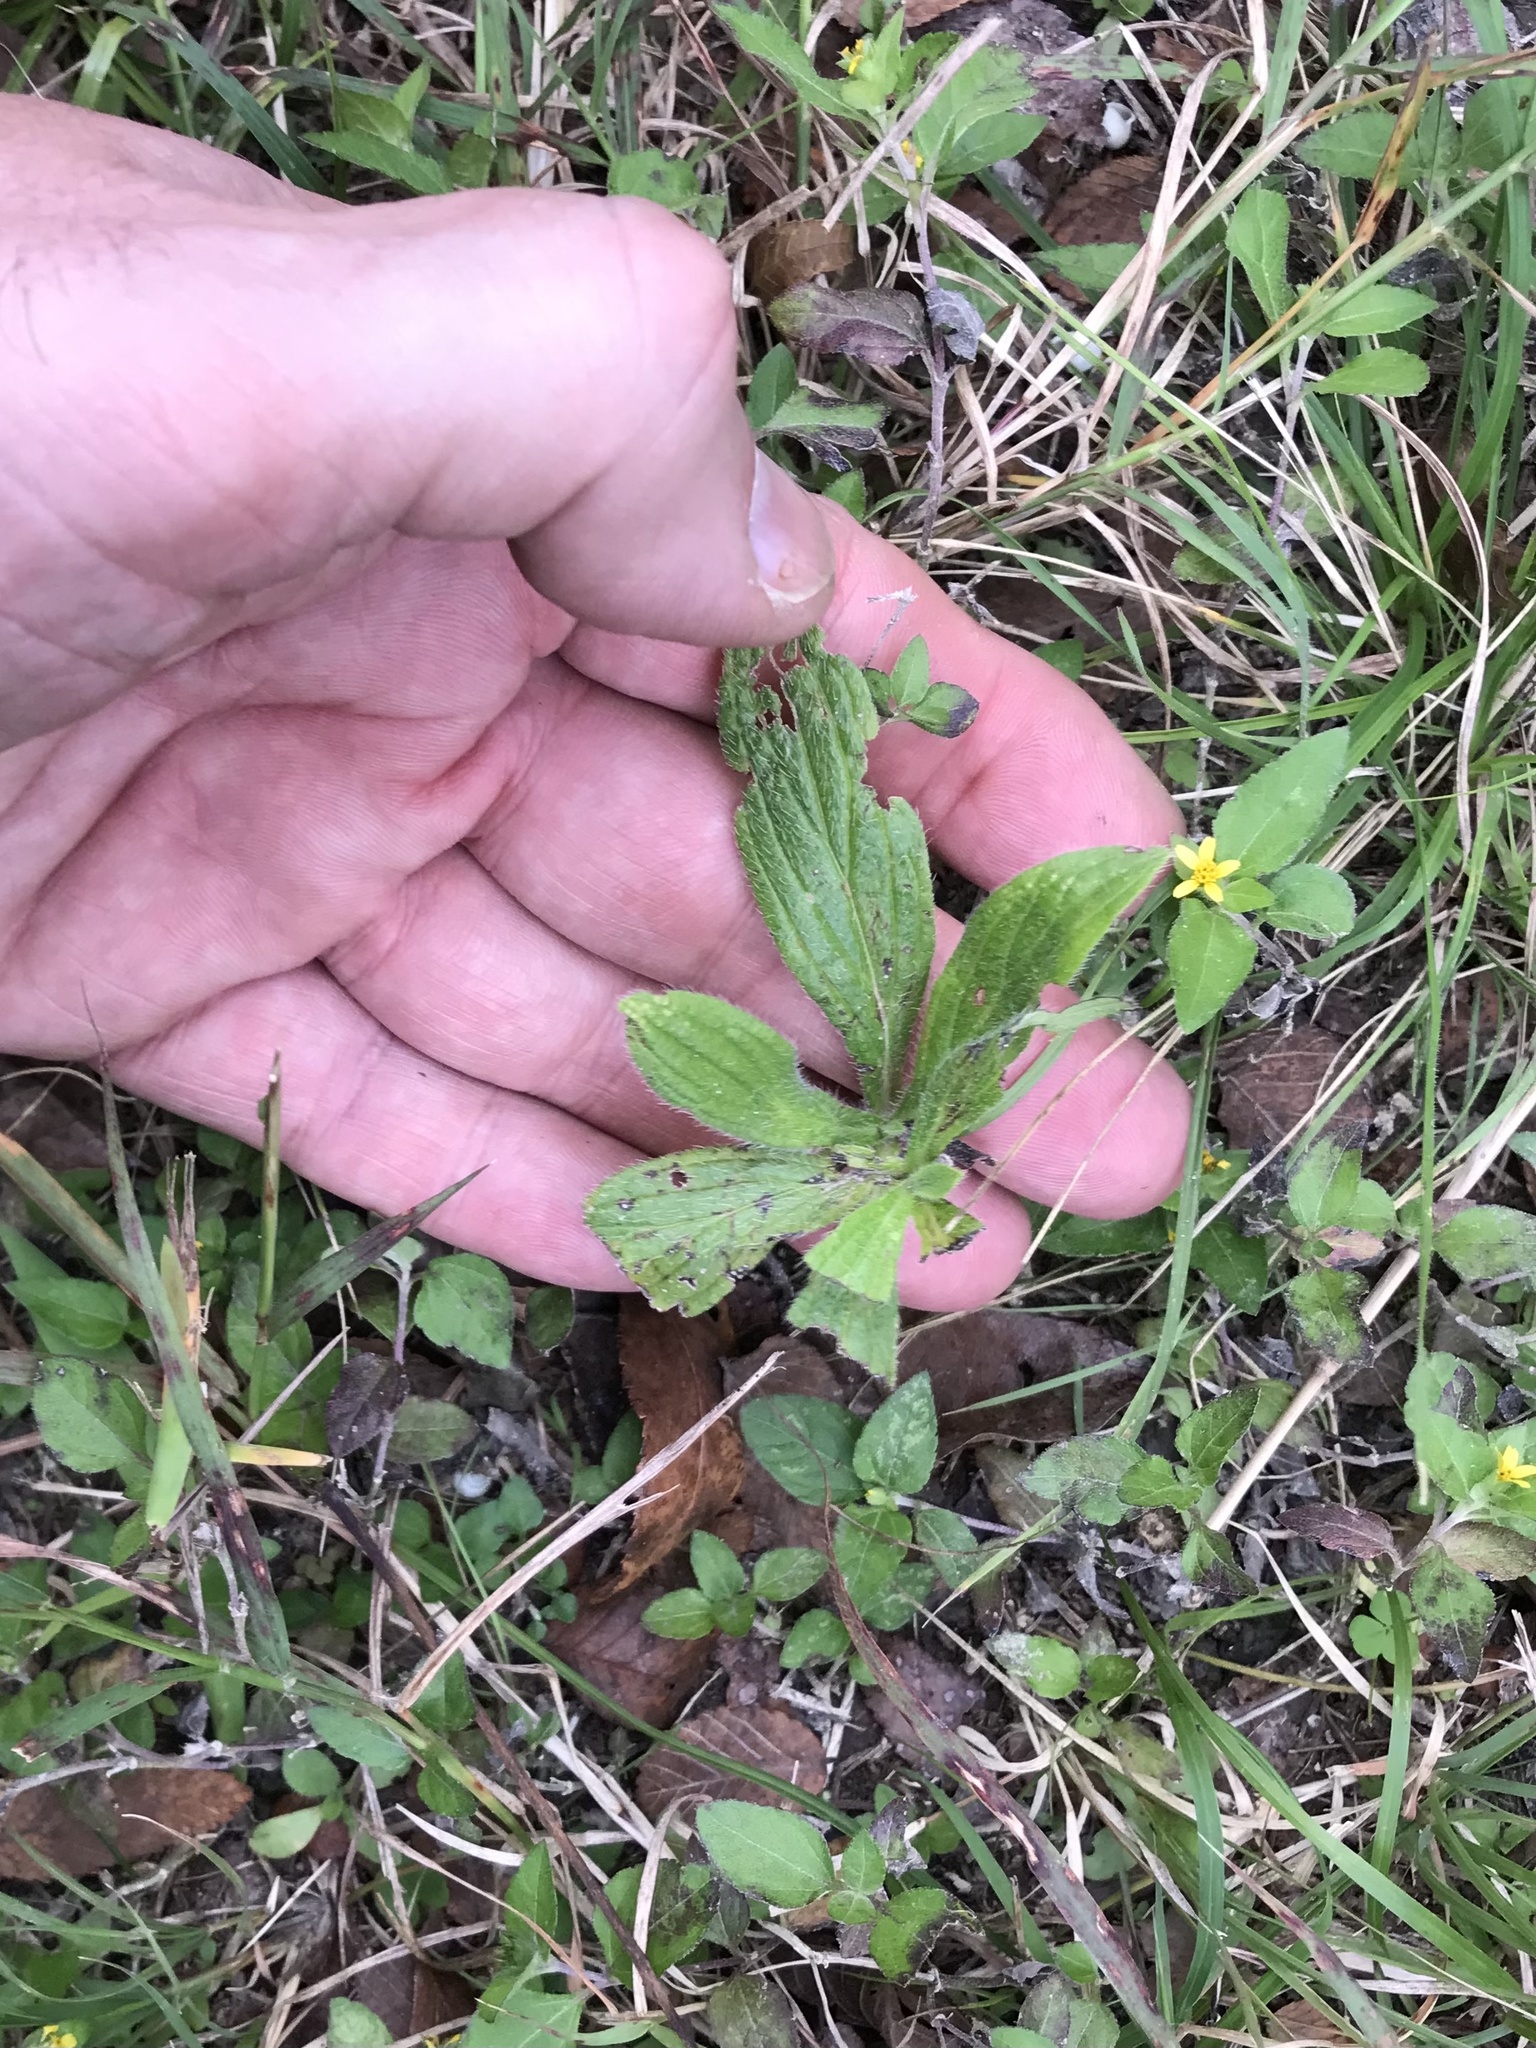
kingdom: Plantae
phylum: Tracheophyta
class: Magnoliopsida
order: Boraginales
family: Boraginaceae
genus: Lithospermum
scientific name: Lithospermum caroliniense
